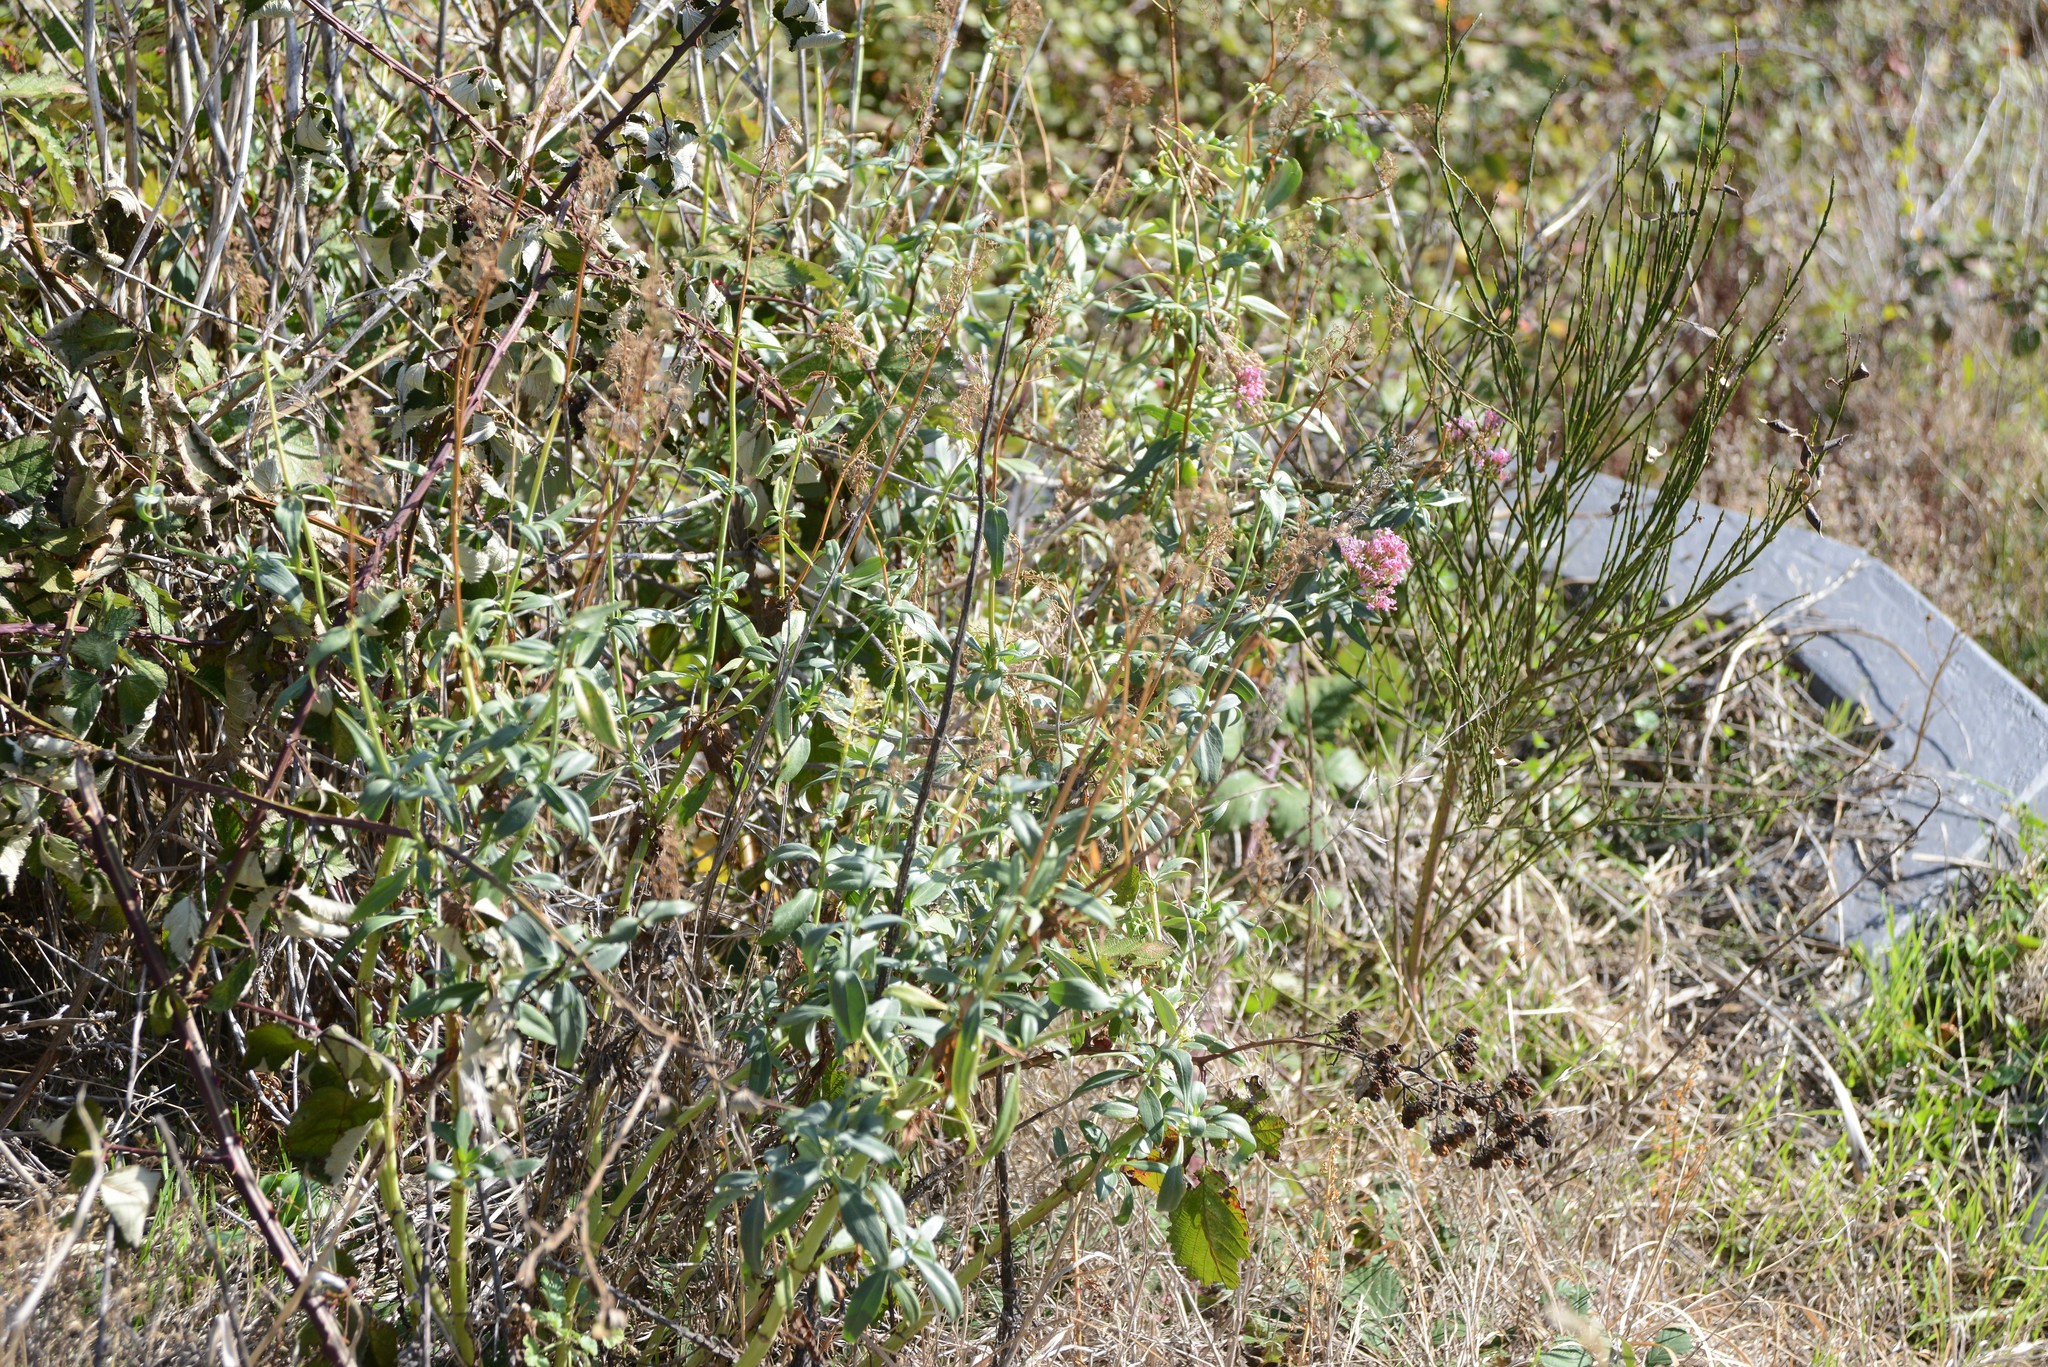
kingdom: Plantae
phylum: Tracheophyta
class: Magnoliopsida
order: Dipsacales
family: Caprifoliaceae
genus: Centranthus
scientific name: Centranthus ruber
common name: Red valerian
